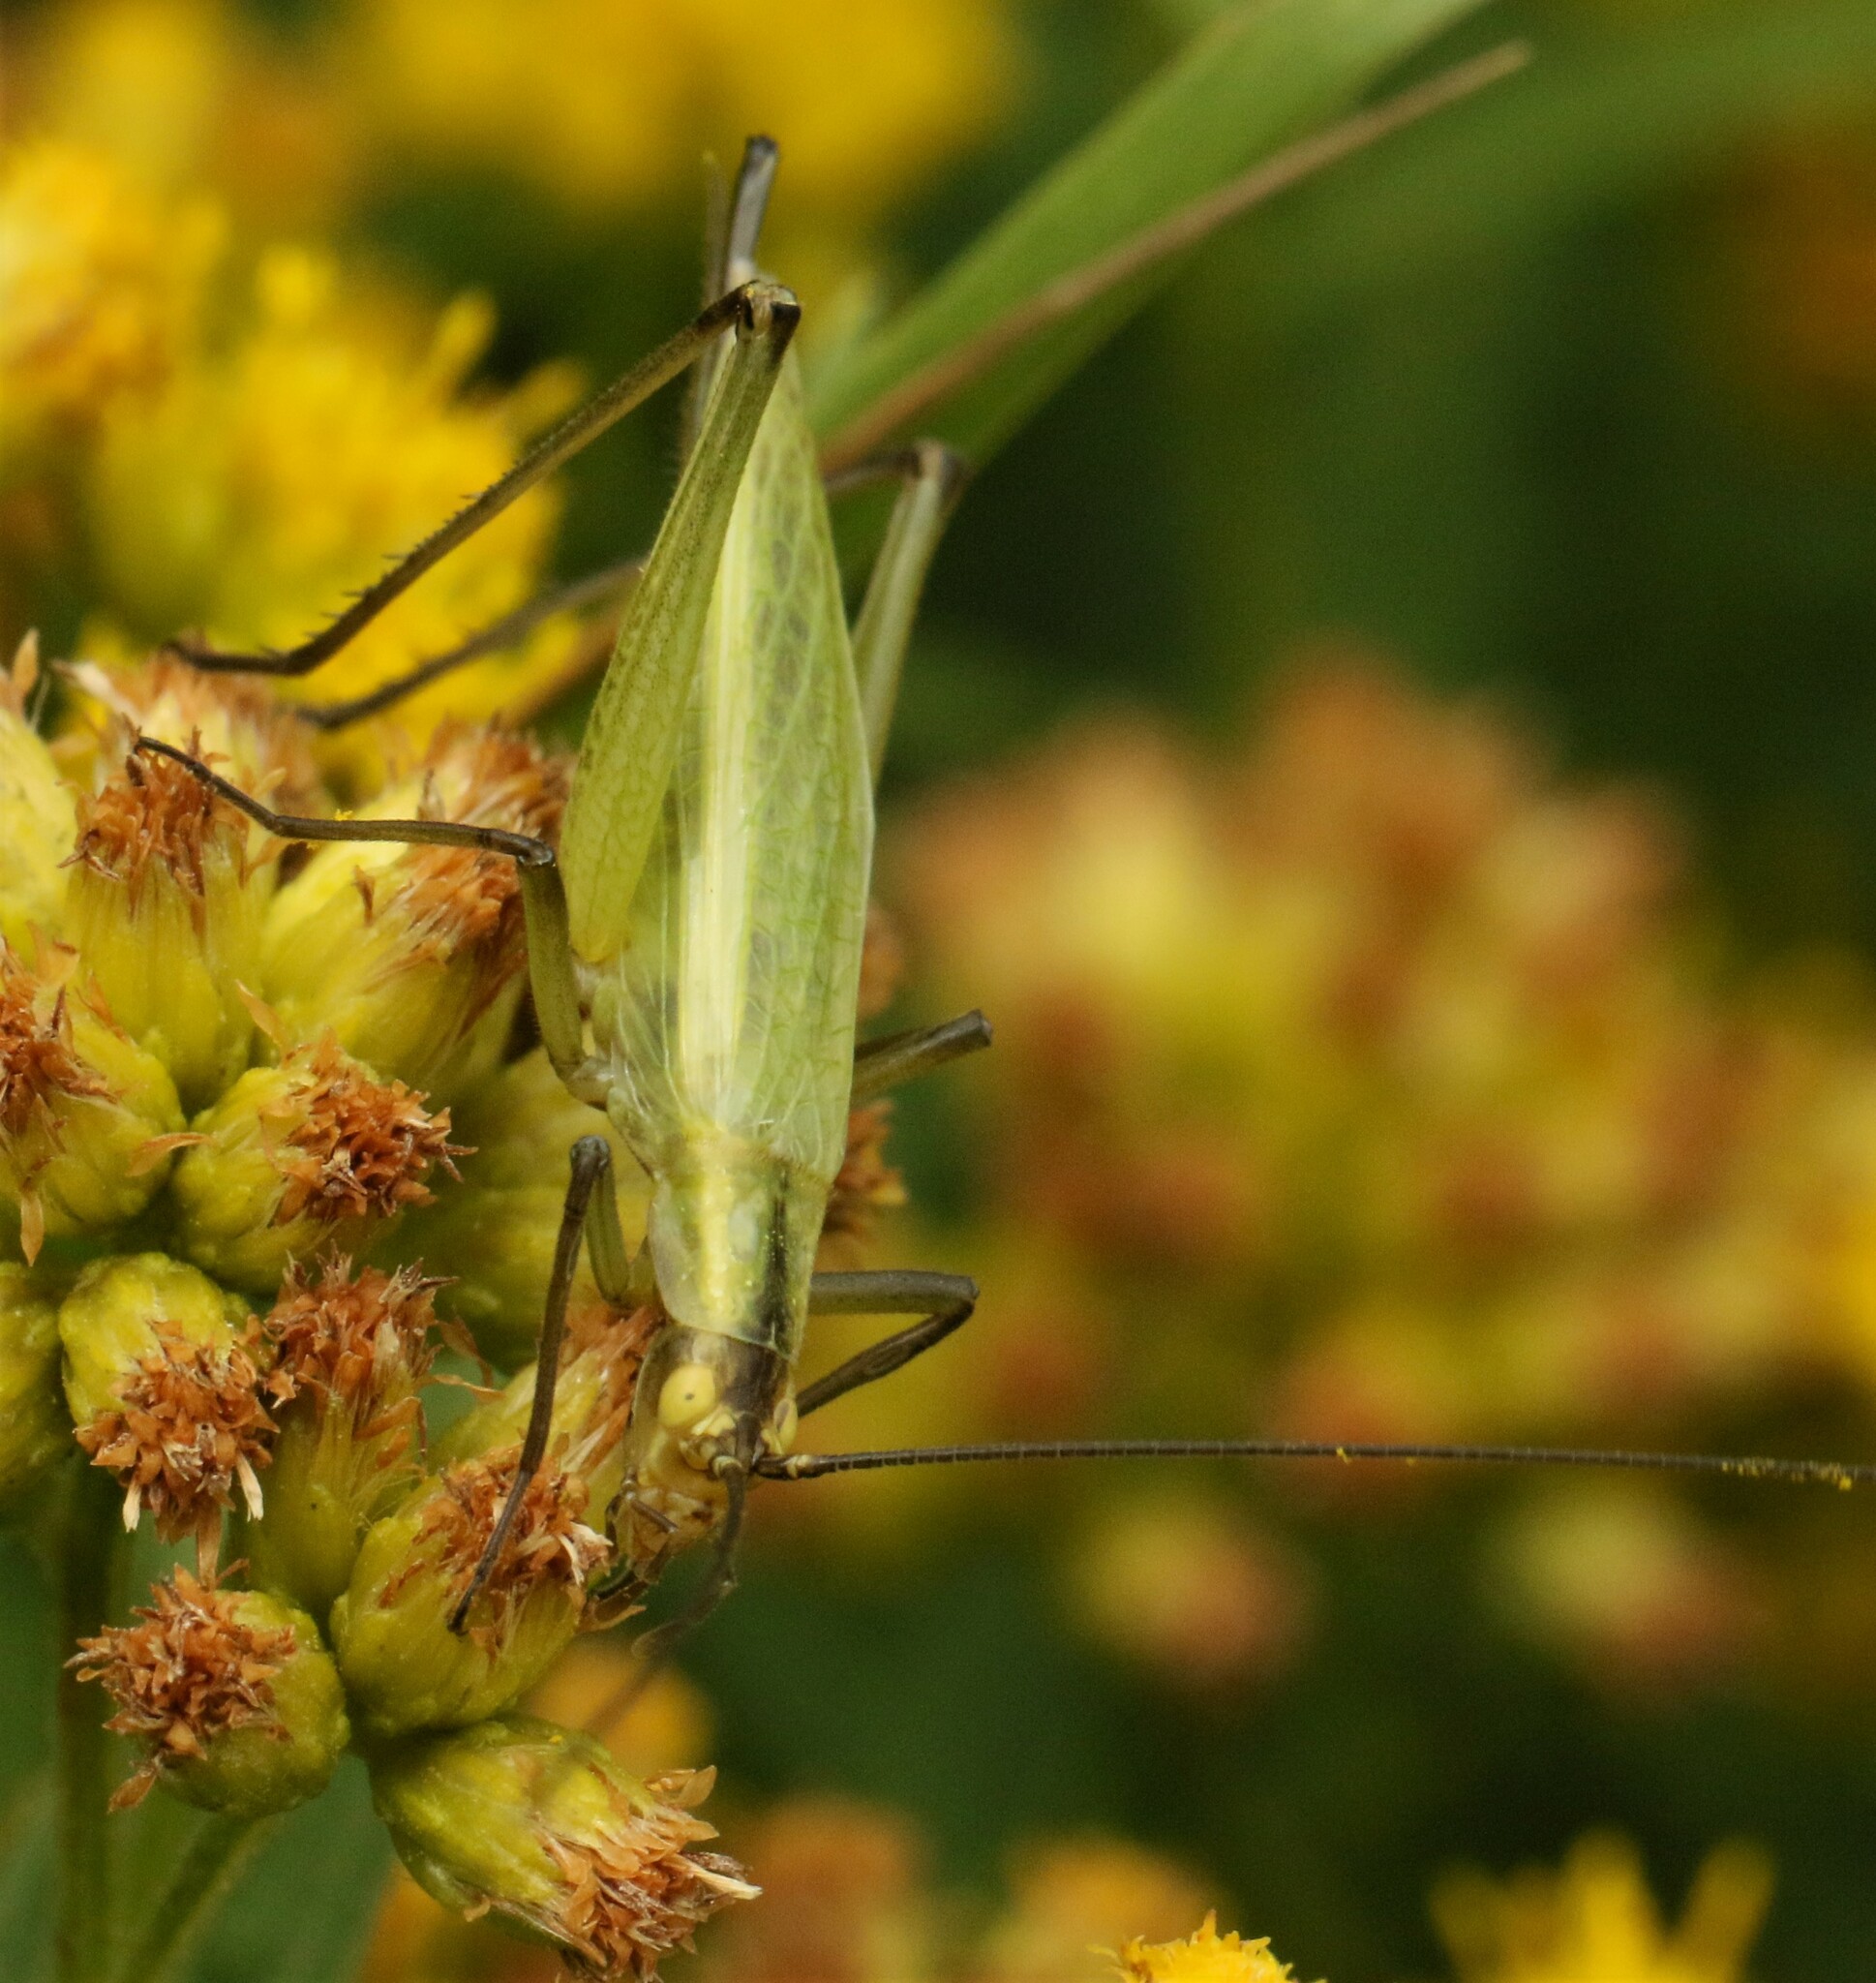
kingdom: Animalia
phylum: Arthropoda
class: Insecta
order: Orthoptera
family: Gryllidae
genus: Oecanthus
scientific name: Oecanthus nigricornis
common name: Black-horned tree cricket
